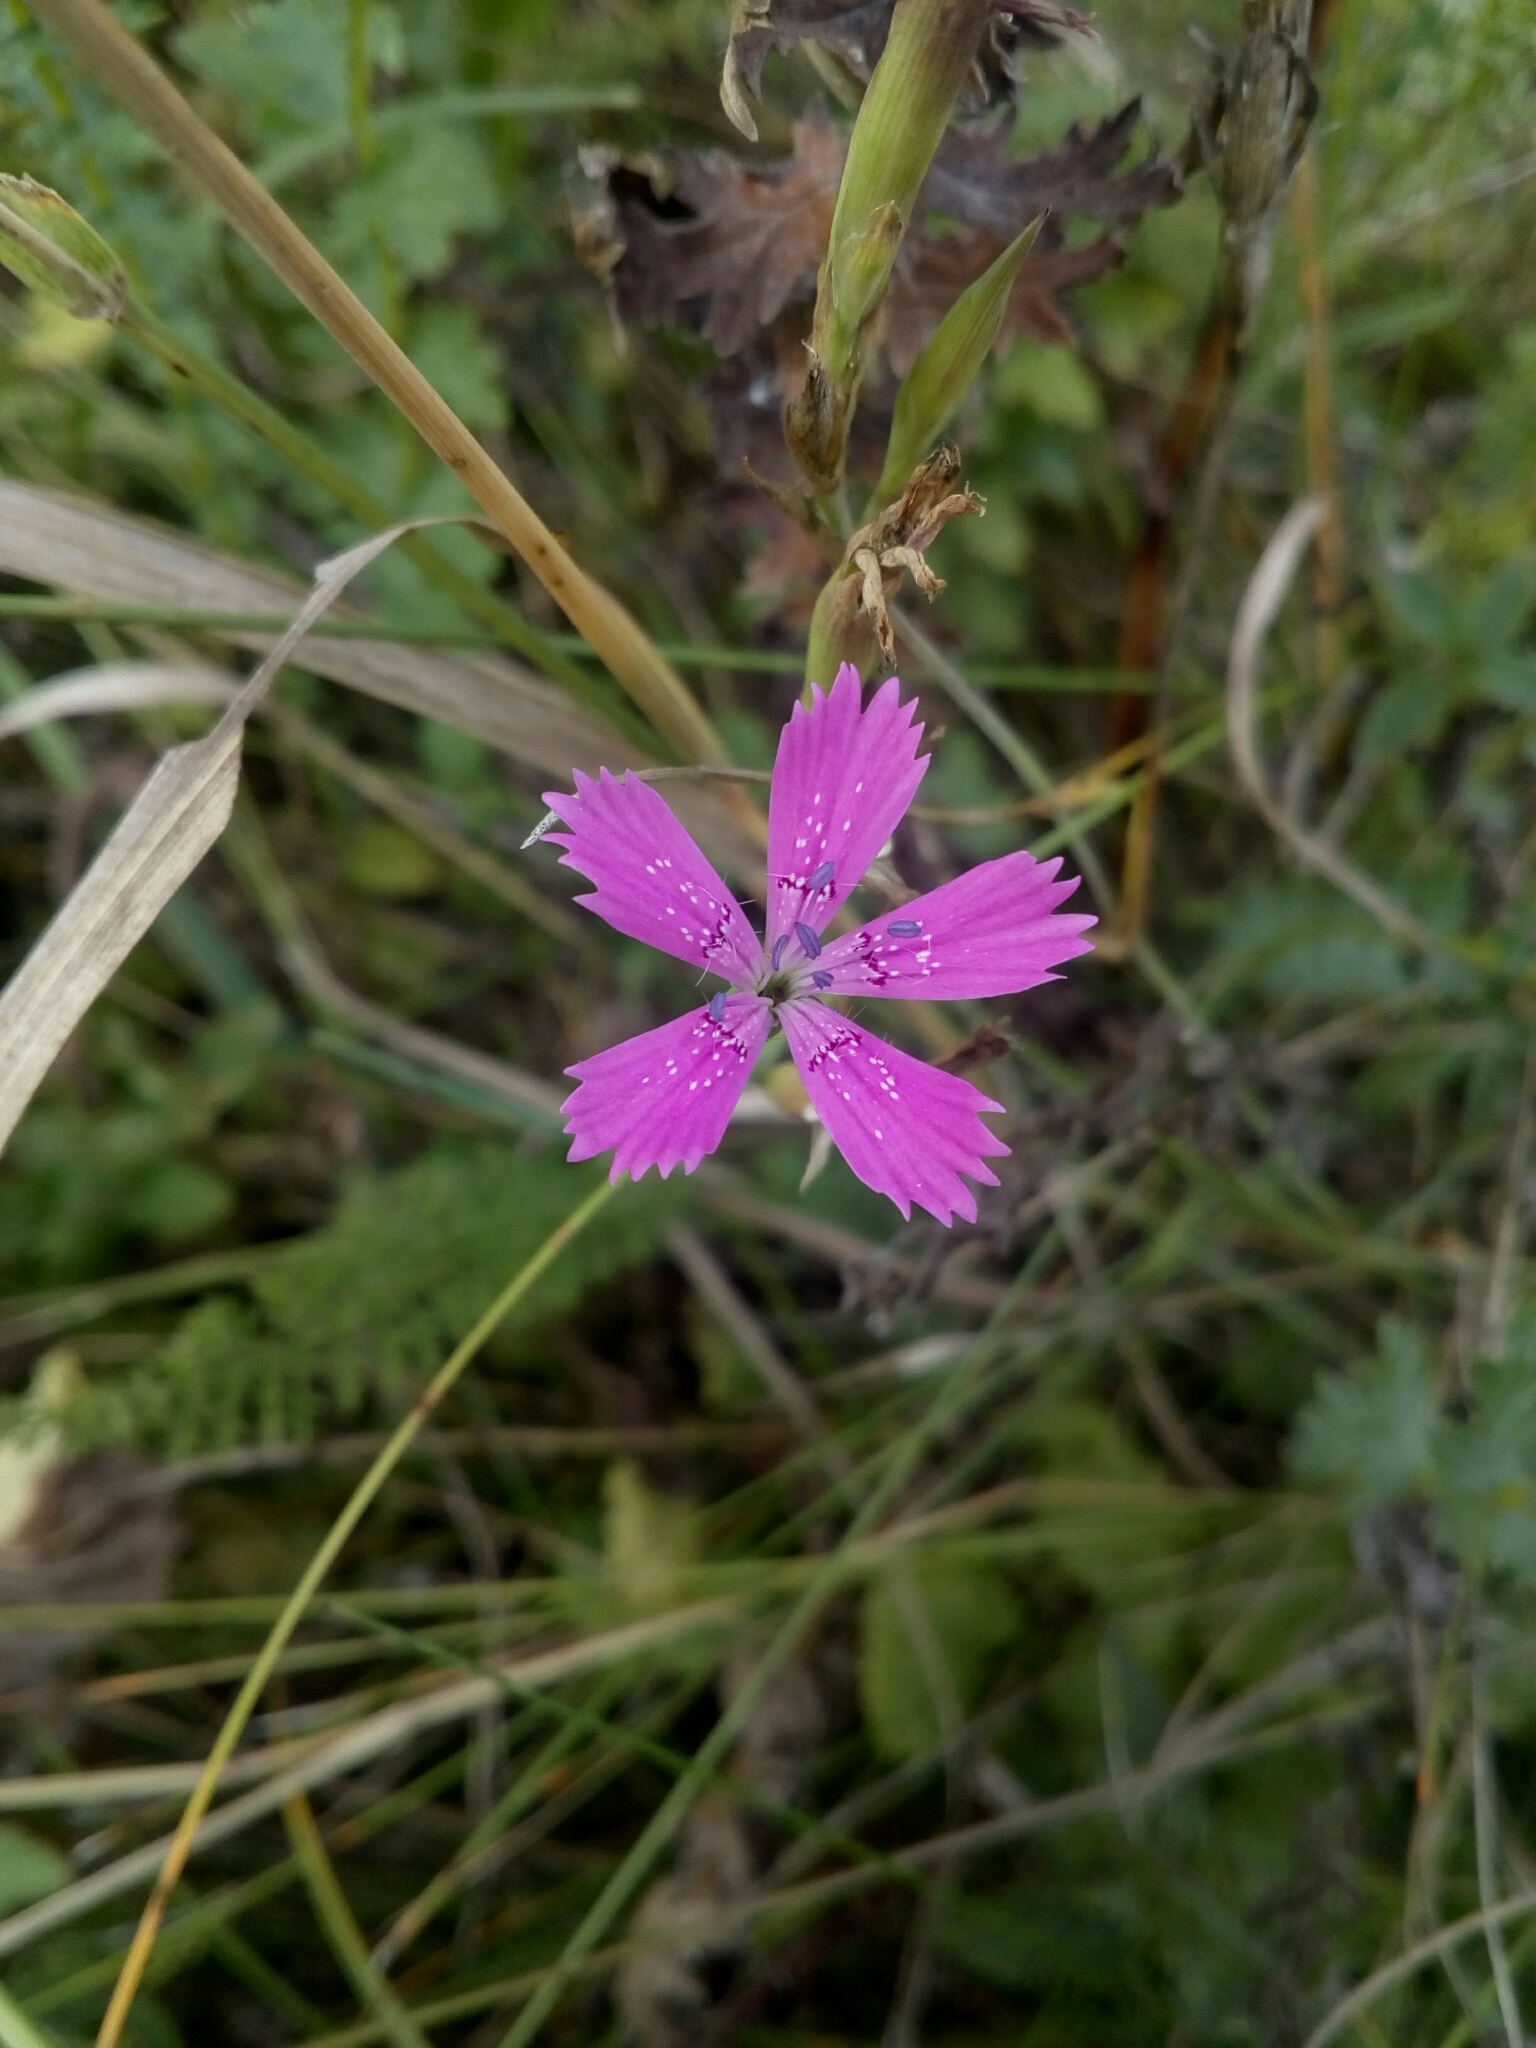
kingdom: Plantae
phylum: Tracheophyta
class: Magnoliopsida
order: Caryophyllales
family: Caryophyllaceae
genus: Dianthus
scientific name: Dianthus deltoides
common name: Maiden pink
